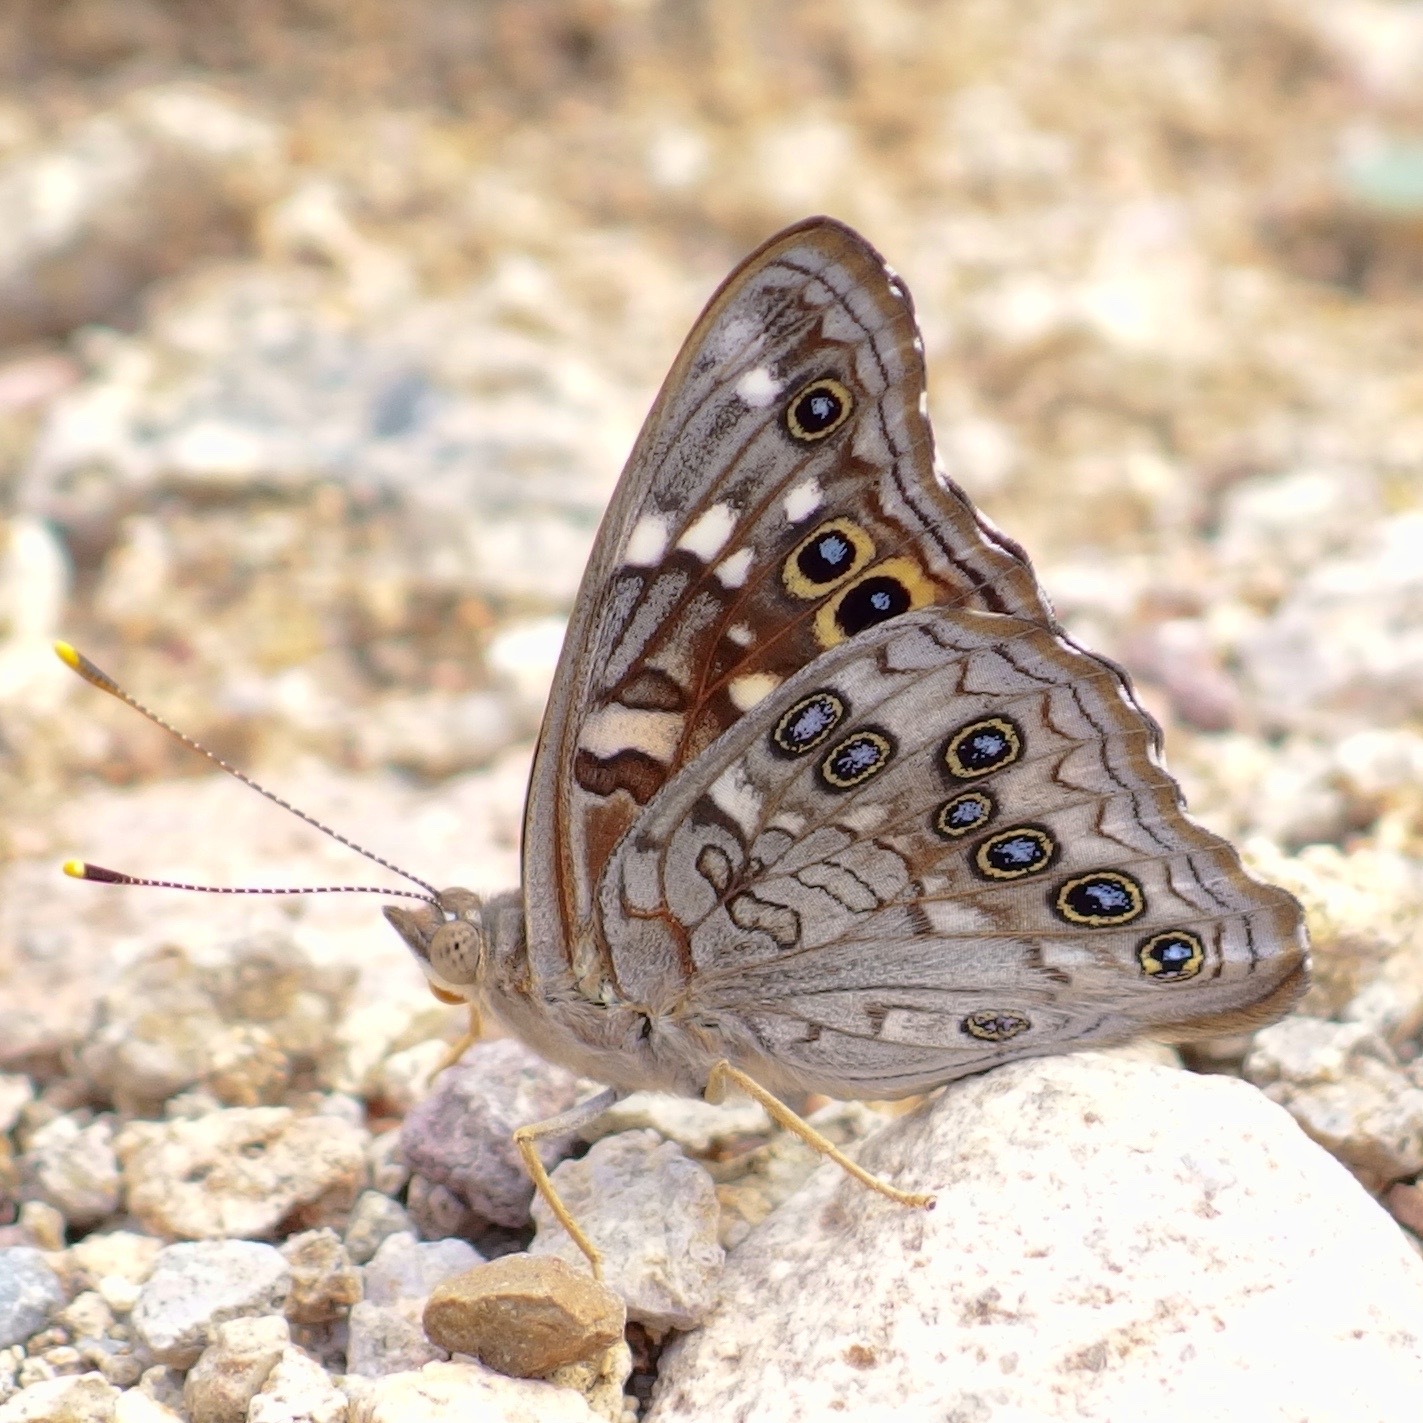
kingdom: Animalia
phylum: Arthropoda
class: Insecta
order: Lepidoptera
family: Nymphalidae
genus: Asterocampa
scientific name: Asterocampa leilia
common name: Empress leilia
